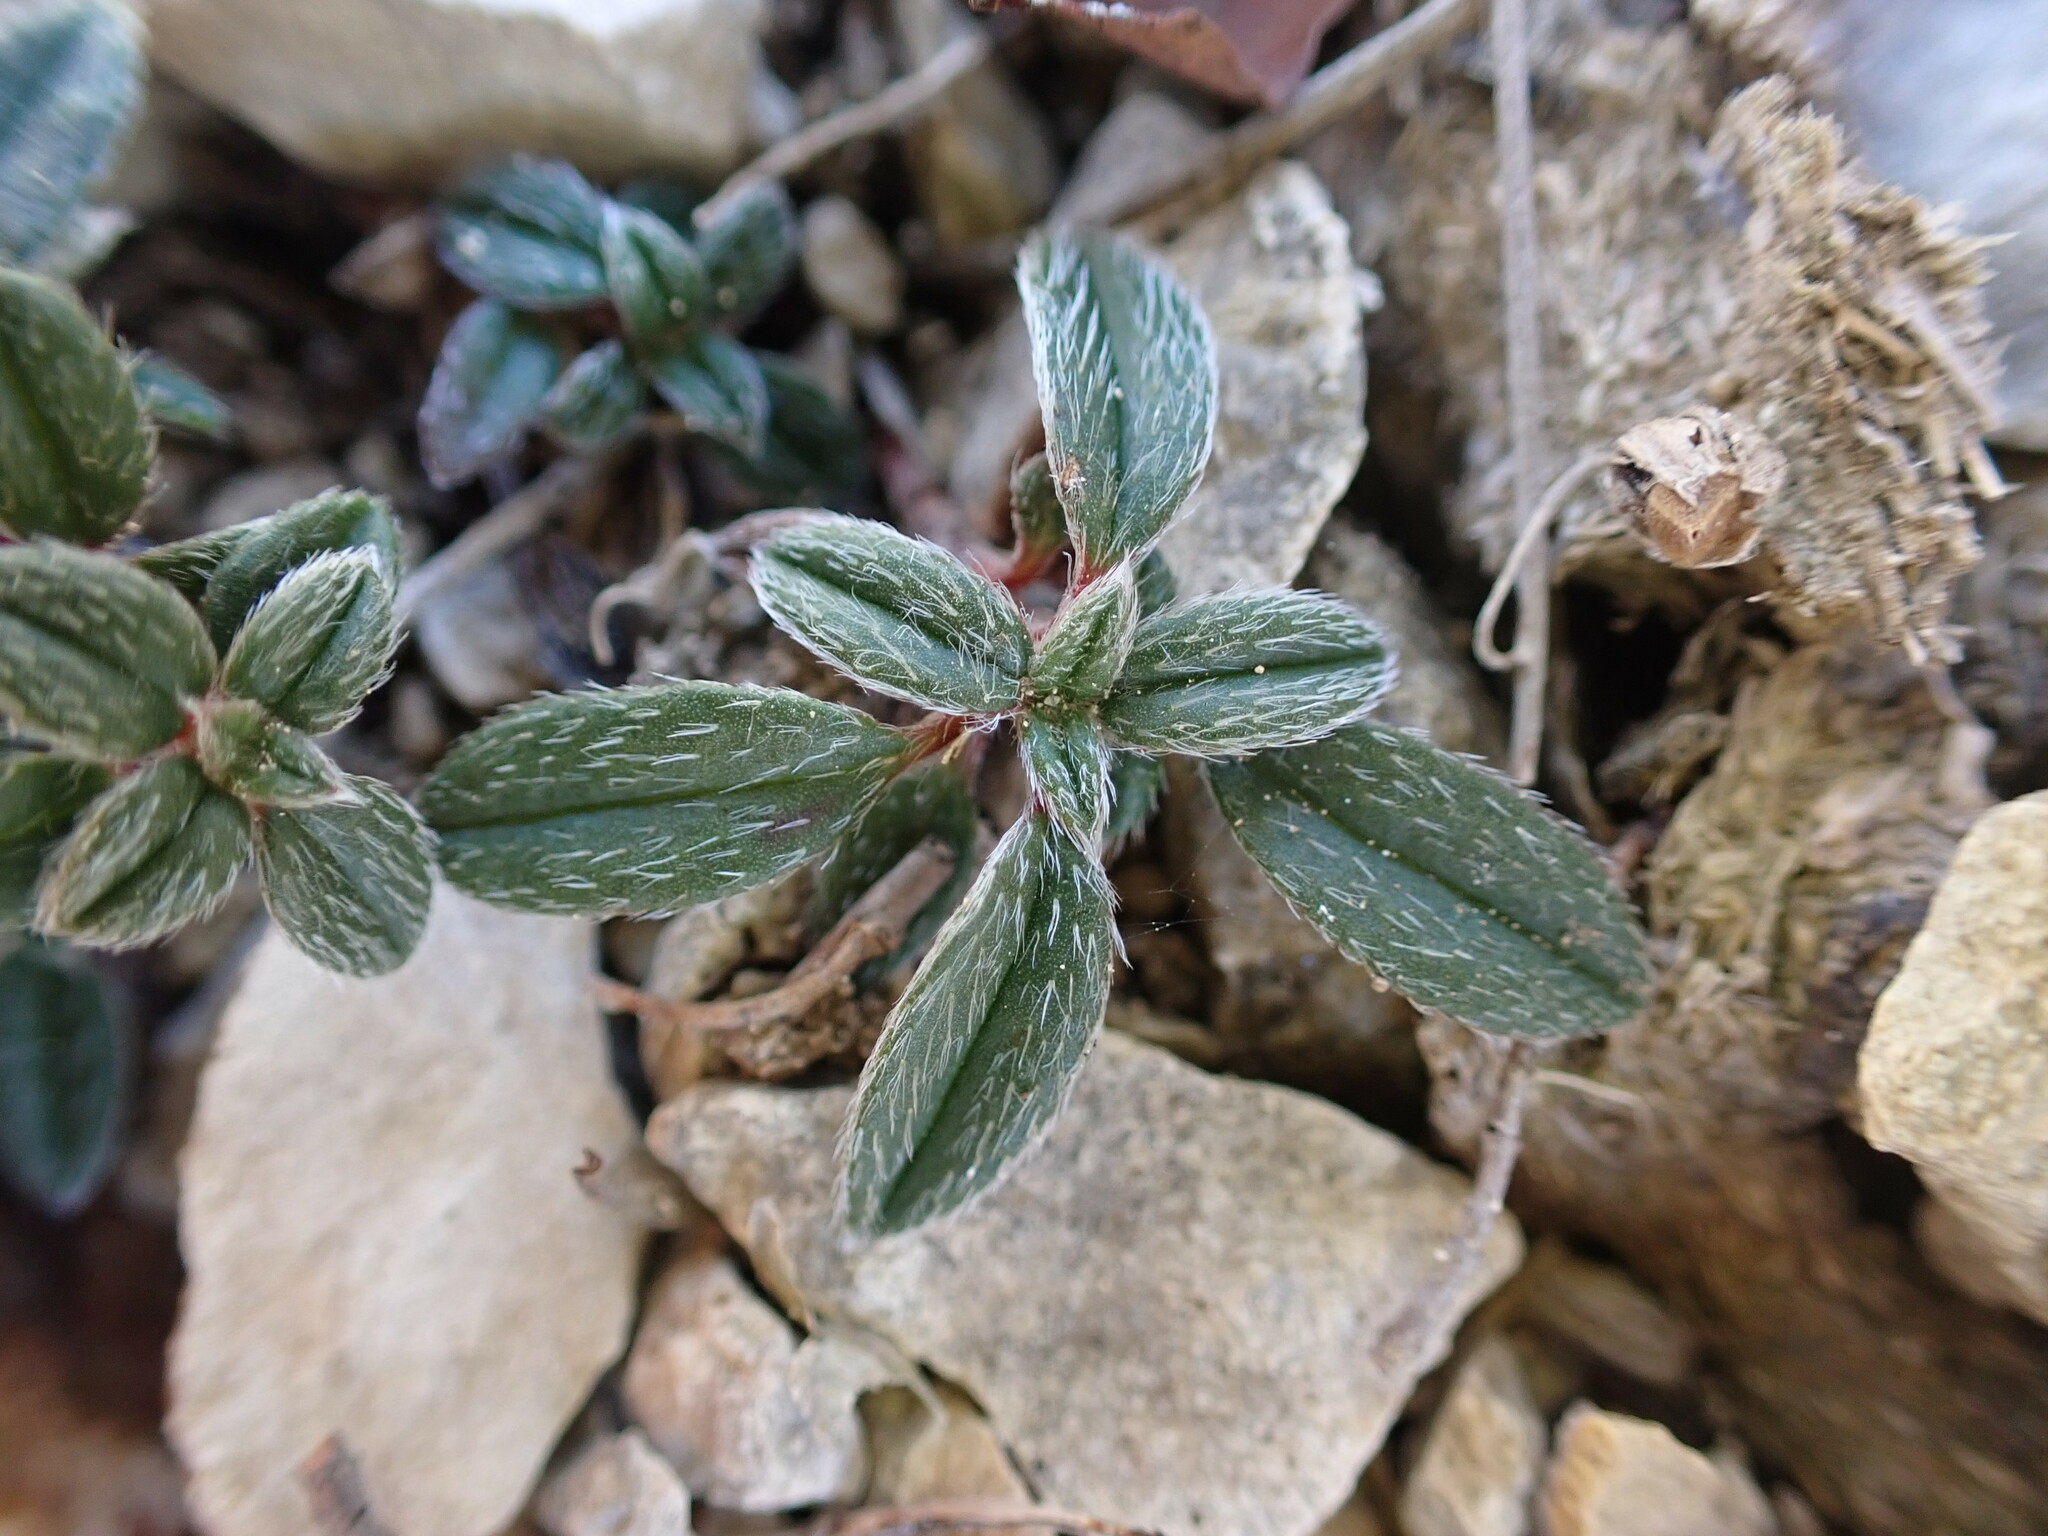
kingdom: Plantae
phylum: Tracheophyta
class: Magnoliopsida
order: Malvales
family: Cistaceae
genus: Helianthemum
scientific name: Helianthemum oelandicum
